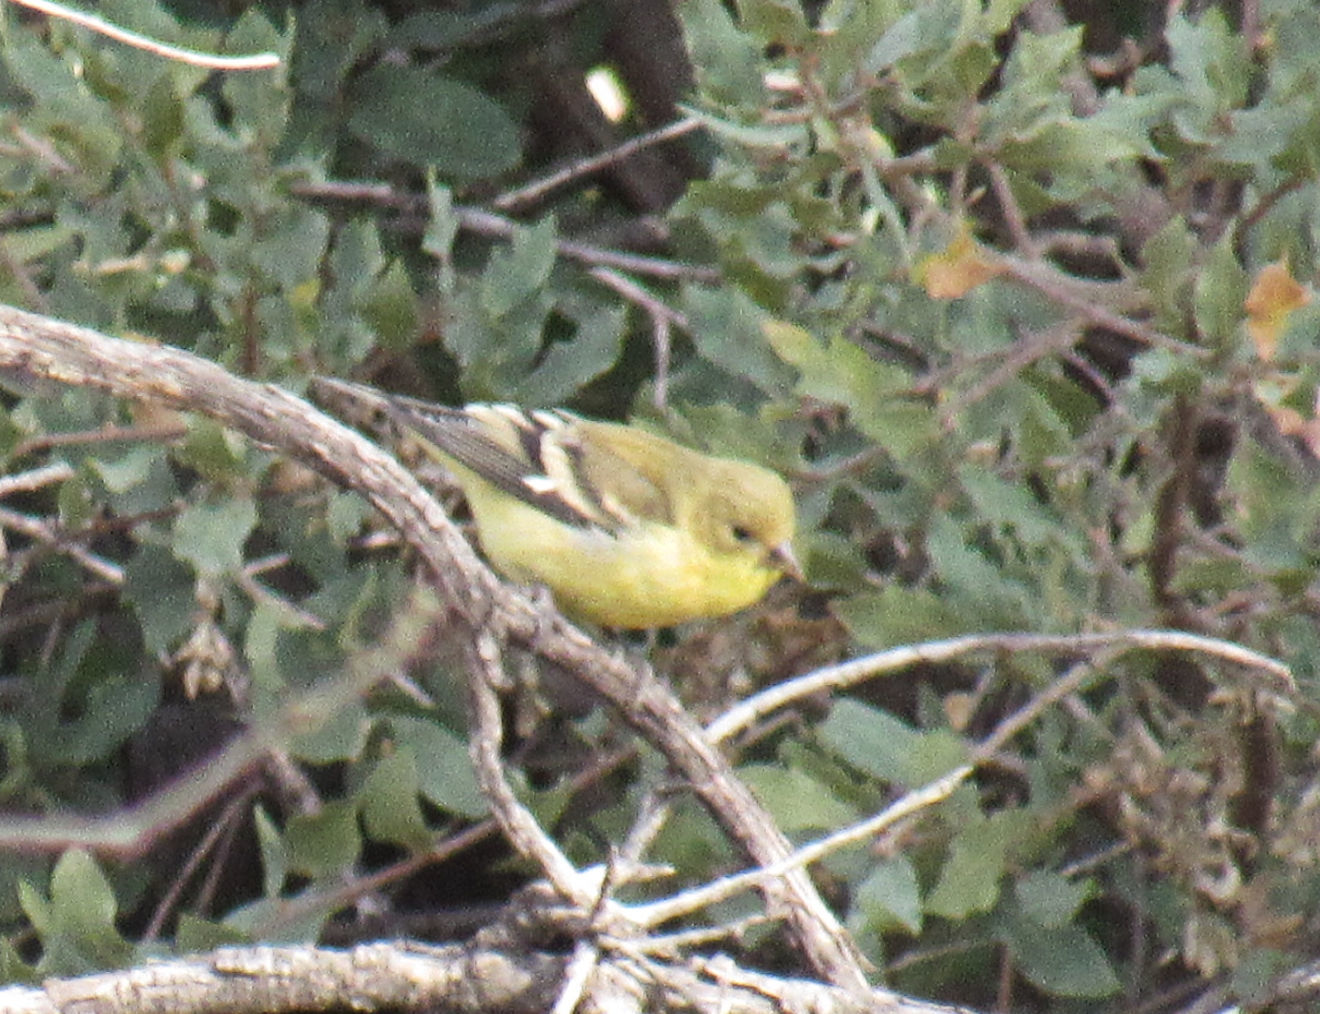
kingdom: Animalia
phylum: Chordata
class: Aves
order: Passeriformes
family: Fringillidae
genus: Spinus
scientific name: Spinus psaltria
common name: Lesser goldfinch
